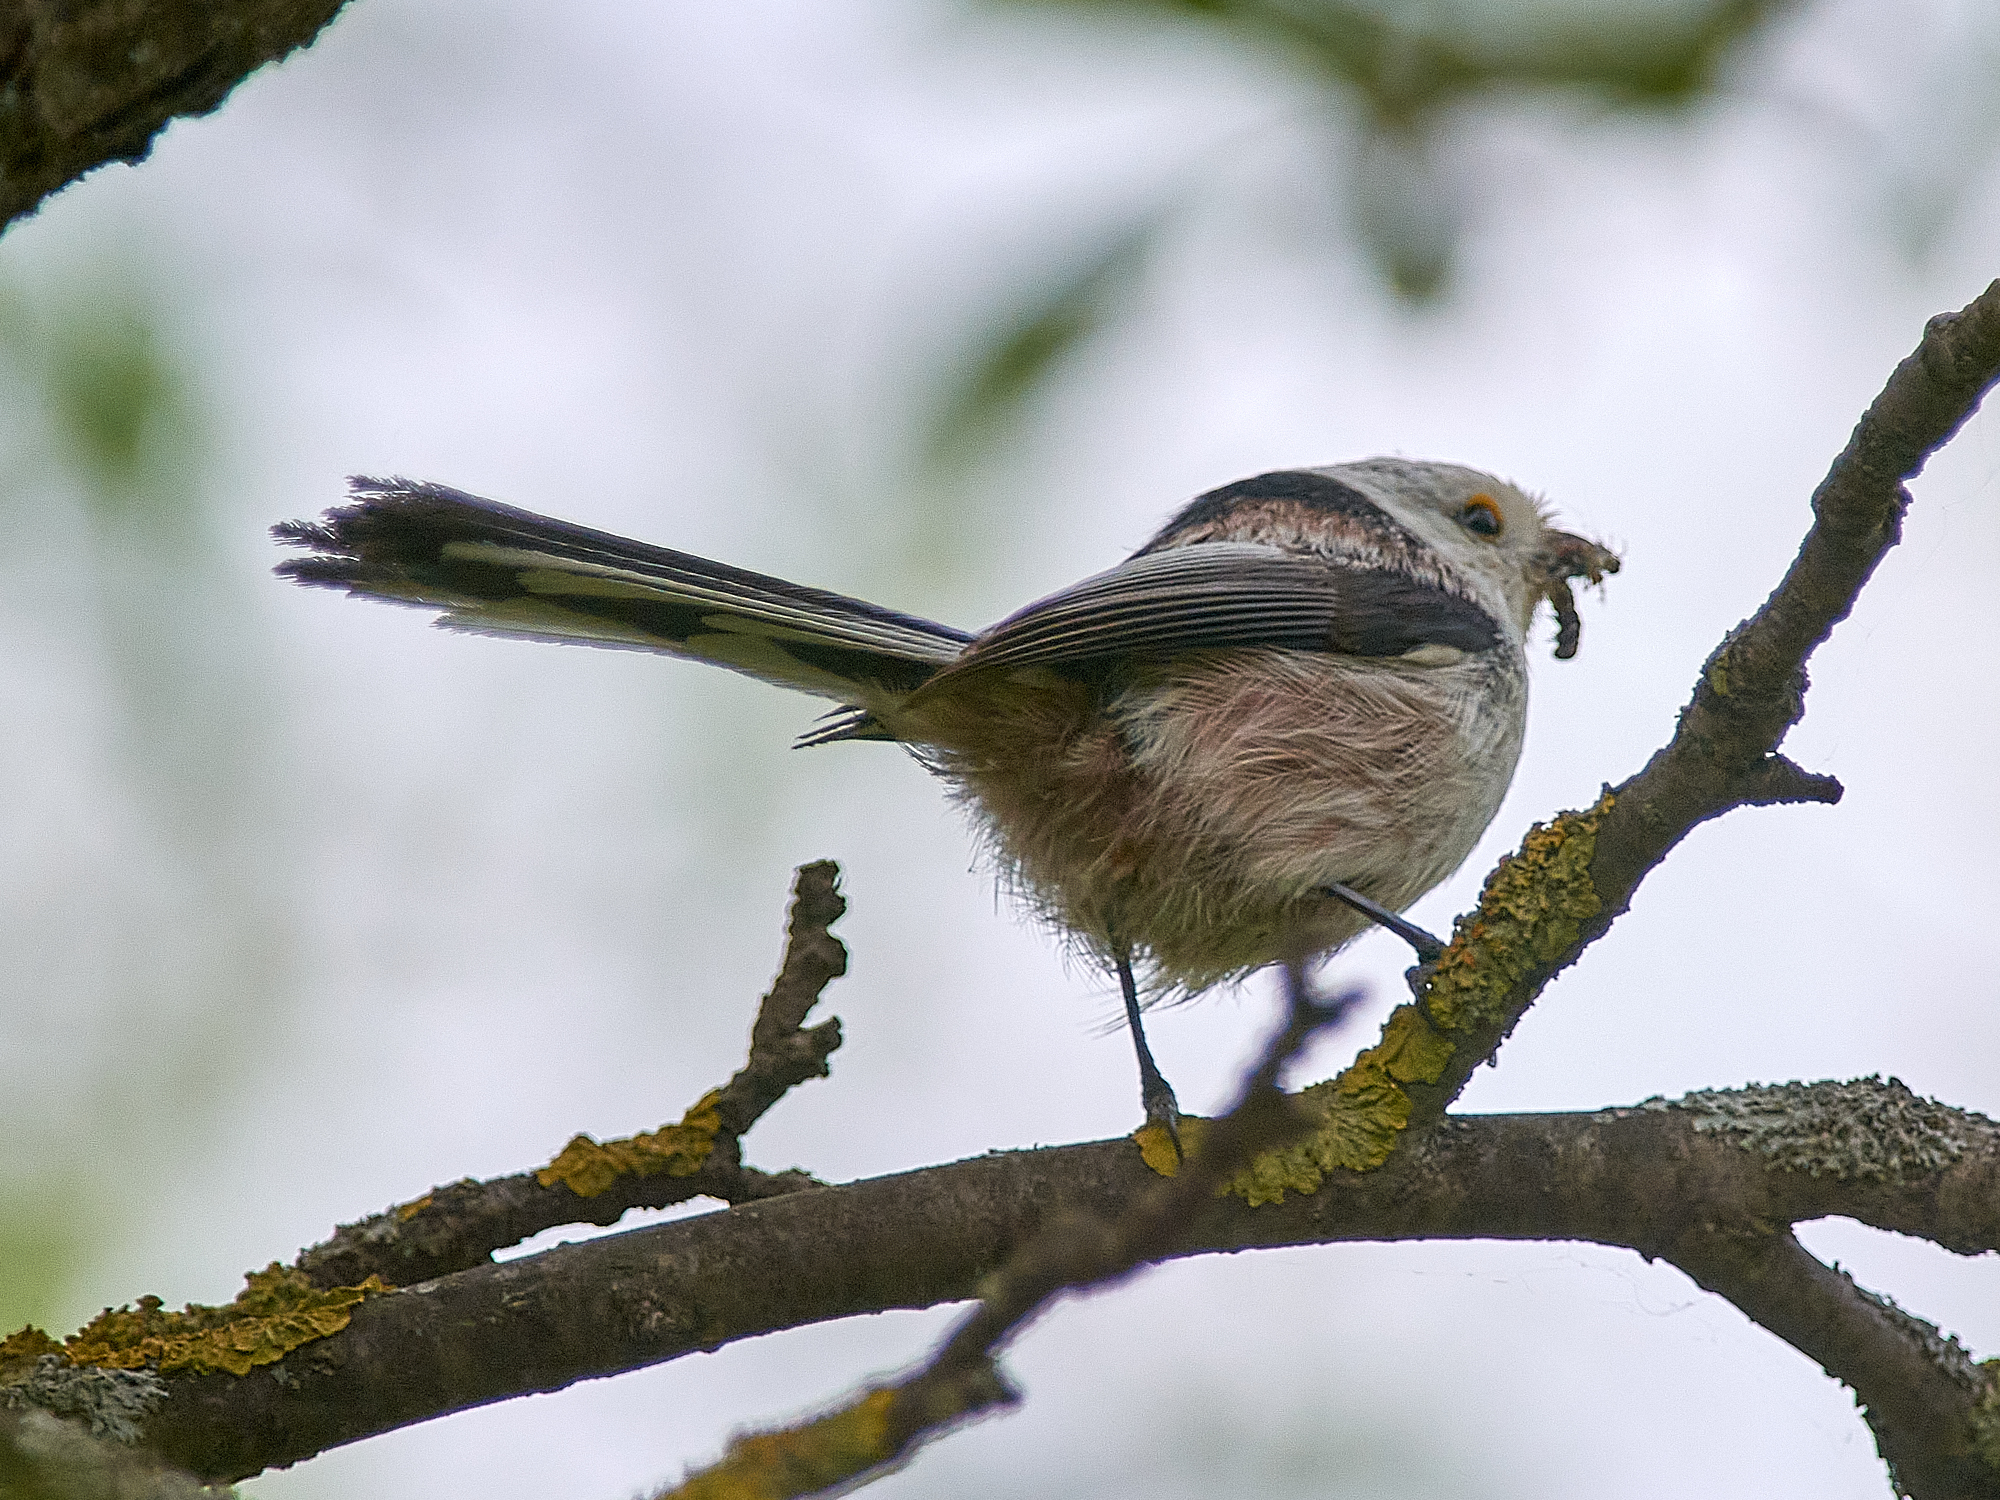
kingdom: Animalia
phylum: Chordata
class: Aves
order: Passeriformes
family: Aegithalidae
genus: Aegithalos
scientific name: Aegithalos caudatus
